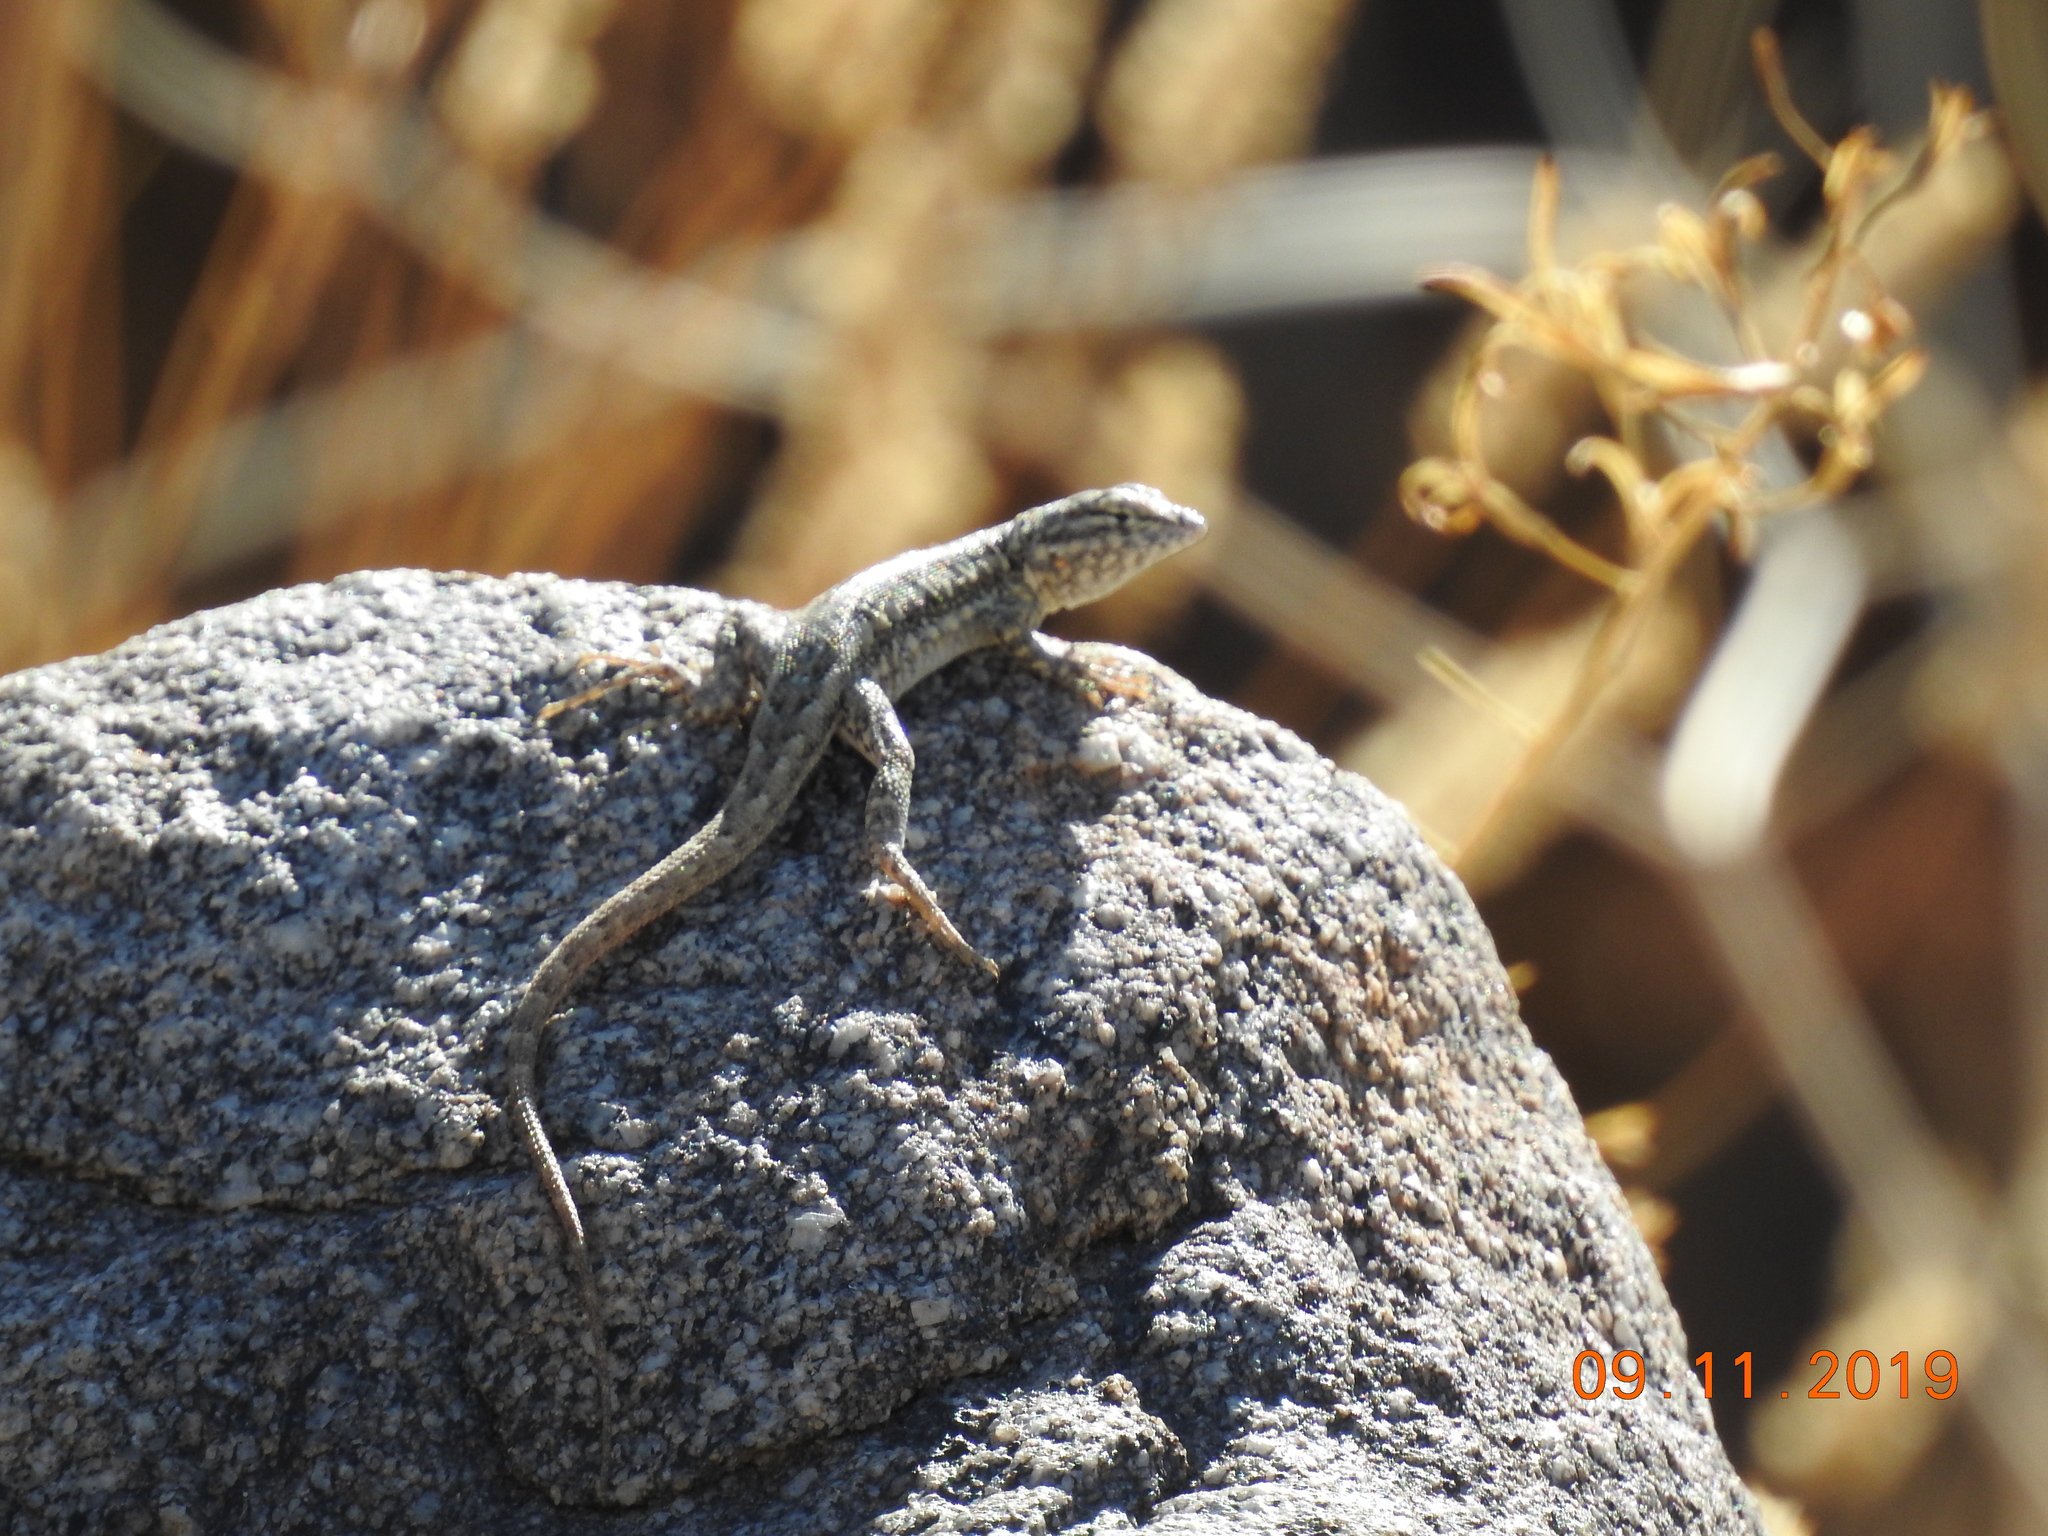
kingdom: Animalia
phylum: Chordata
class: Squamata
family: Phrynosomatidae
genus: Uta
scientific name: Uta stansburiana
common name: Side-blotched lizard
